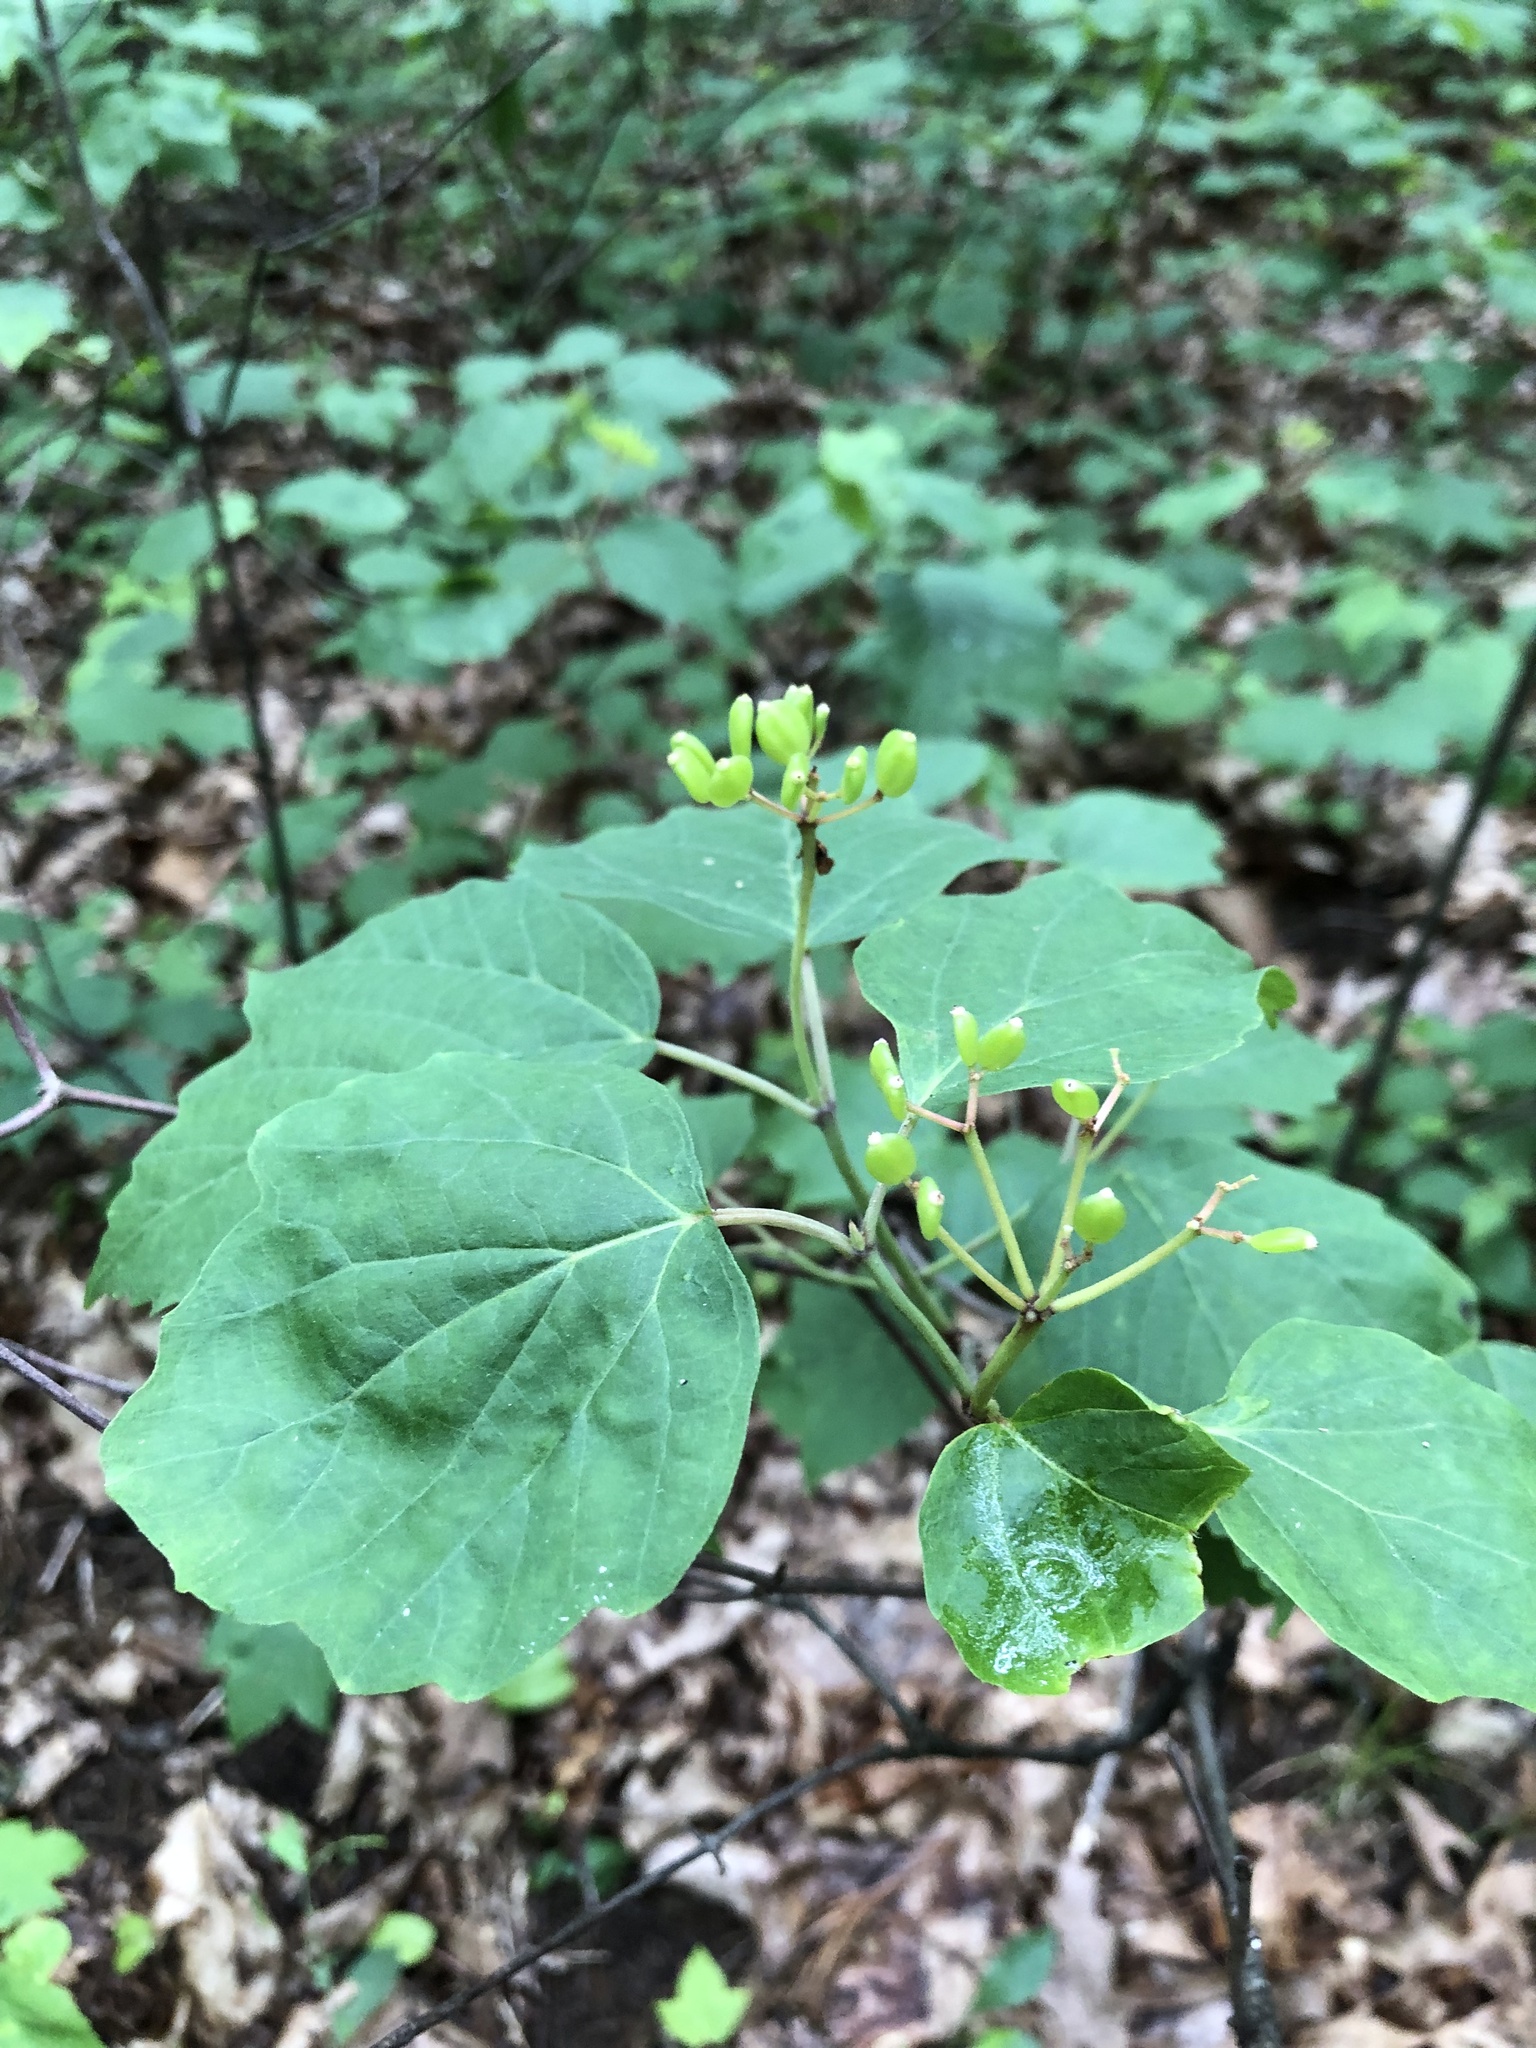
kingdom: Plantae
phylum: Tracheophyta
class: Magnoliopsida
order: Dipsacales
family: Viburnaceae
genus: Viburnum
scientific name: Viburnum acerifolium
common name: Dockmackie
